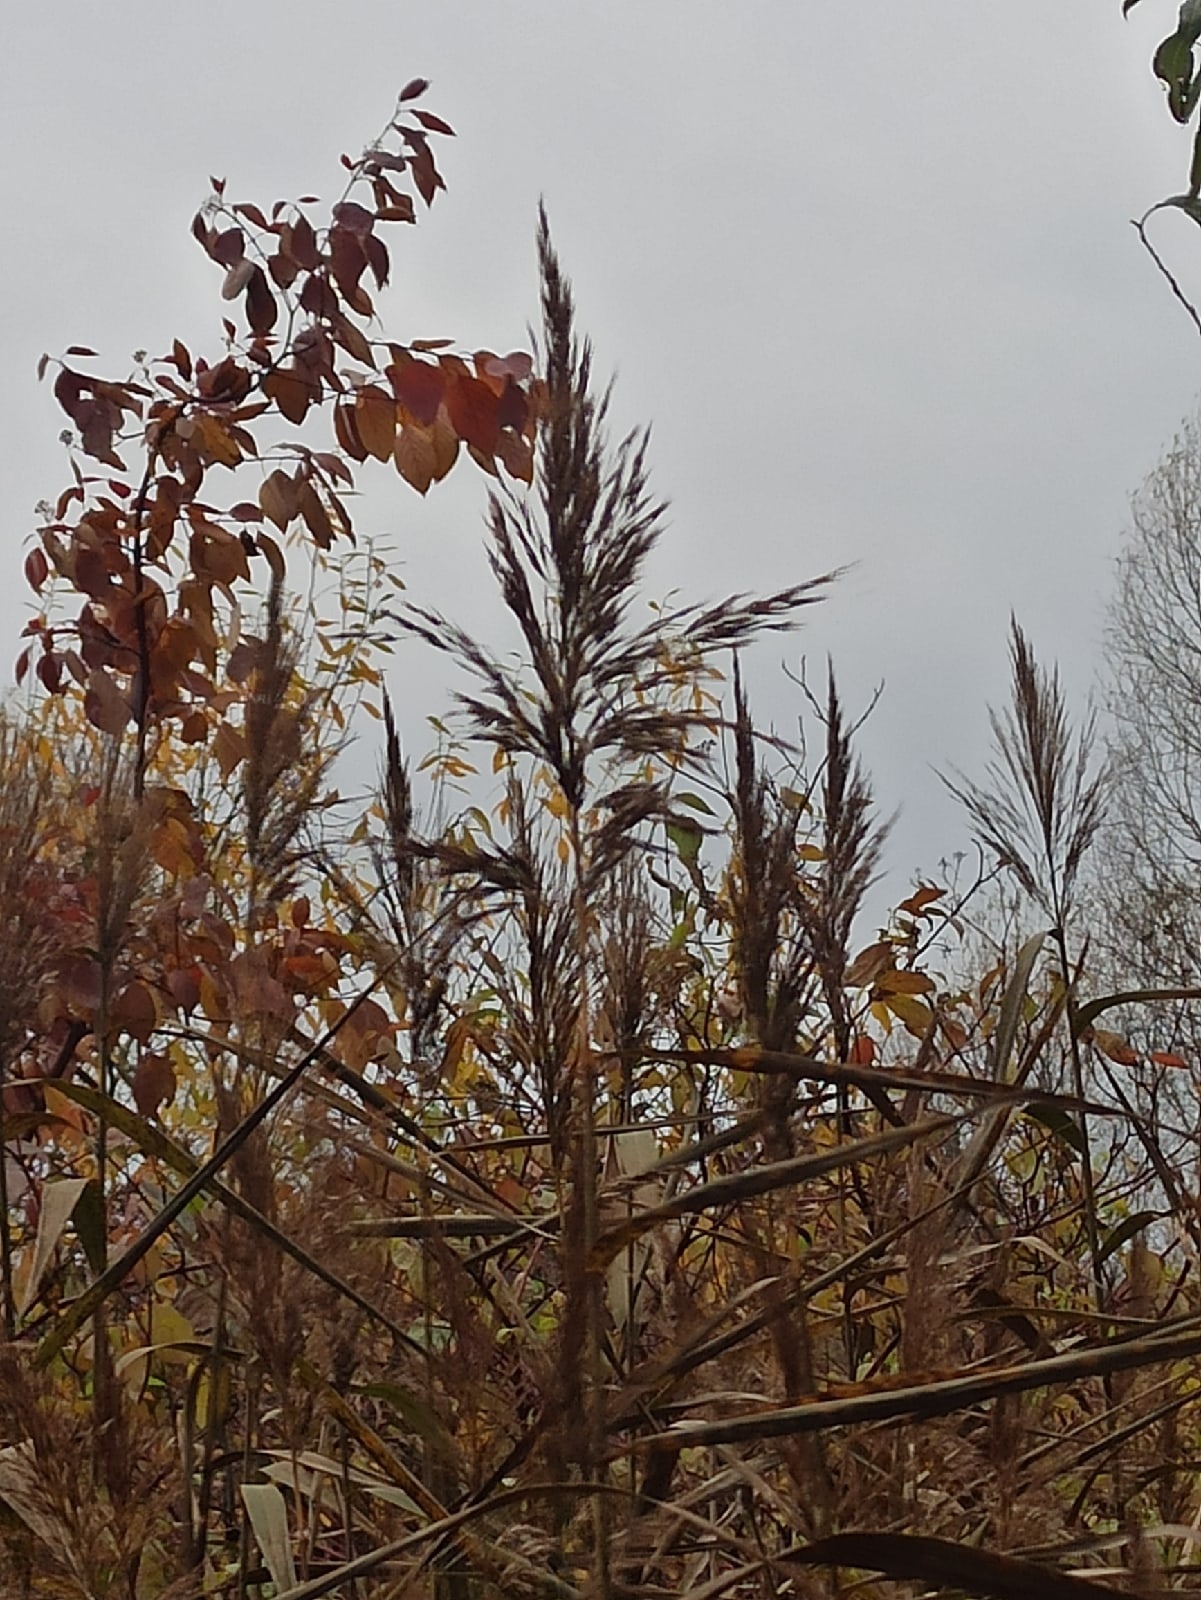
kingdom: Plantae
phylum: Tracheophyta
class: Liliopsida
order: Poales
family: Poaceae
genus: Phragmites
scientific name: Phragmites australis
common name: Common reed
